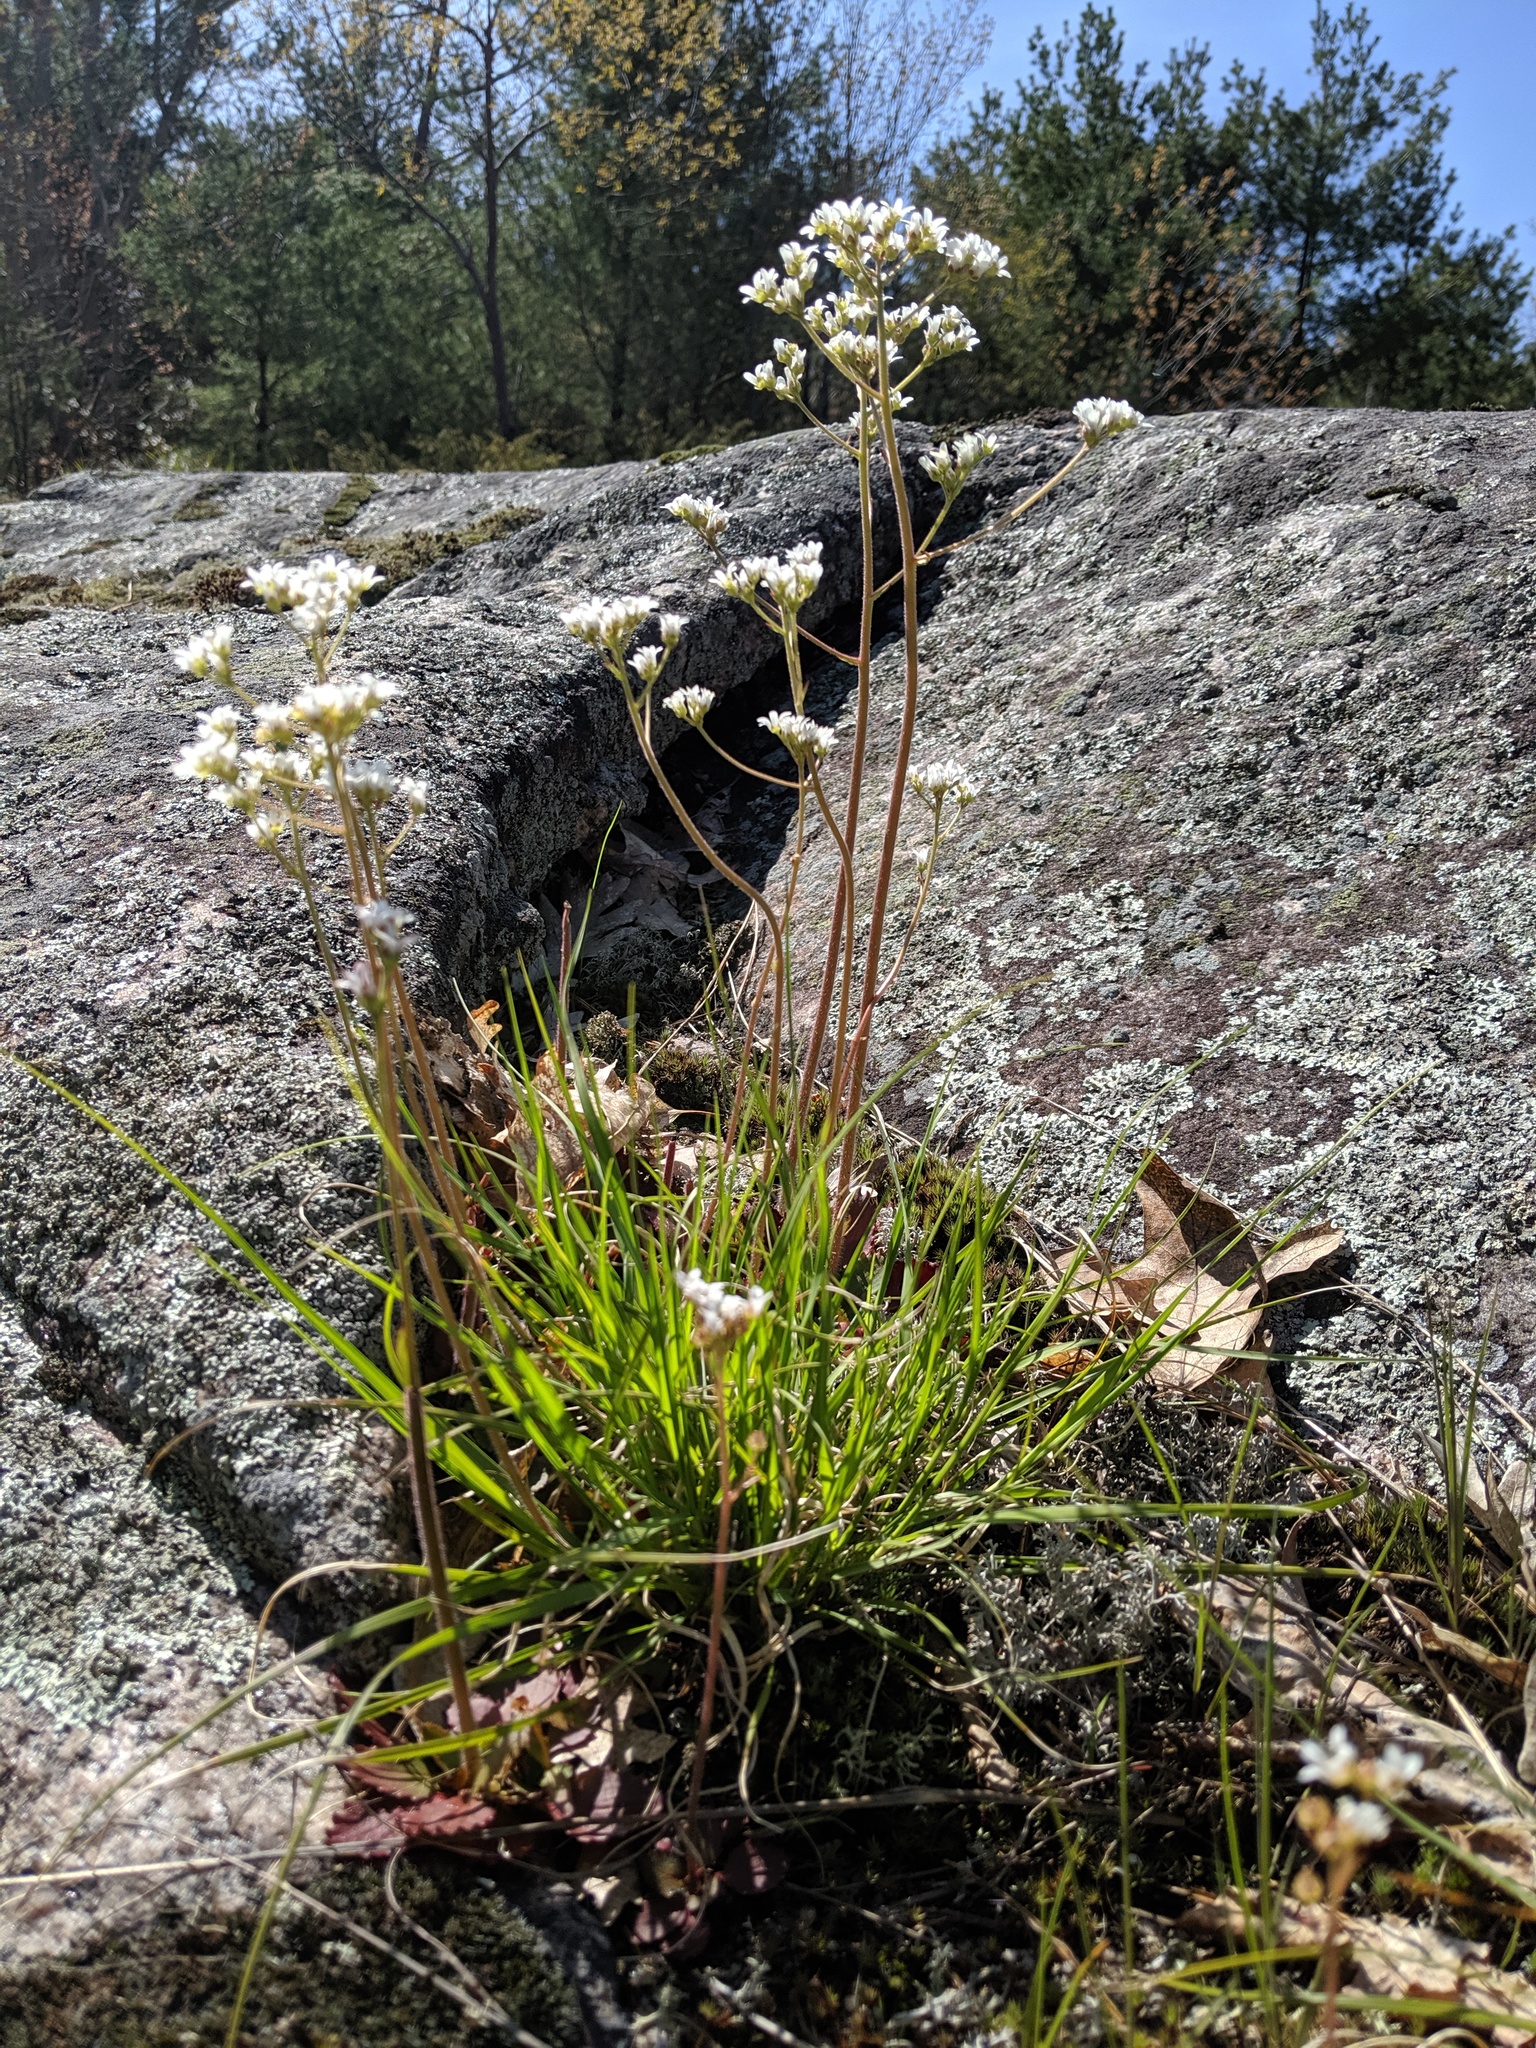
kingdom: Plantae
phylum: Tracheophyta
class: Magnoliopsida
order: Saxifragales
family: Saxifragaceae
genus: Micranthes
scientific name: Micranthes virginiensis
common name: Early saxifrage
